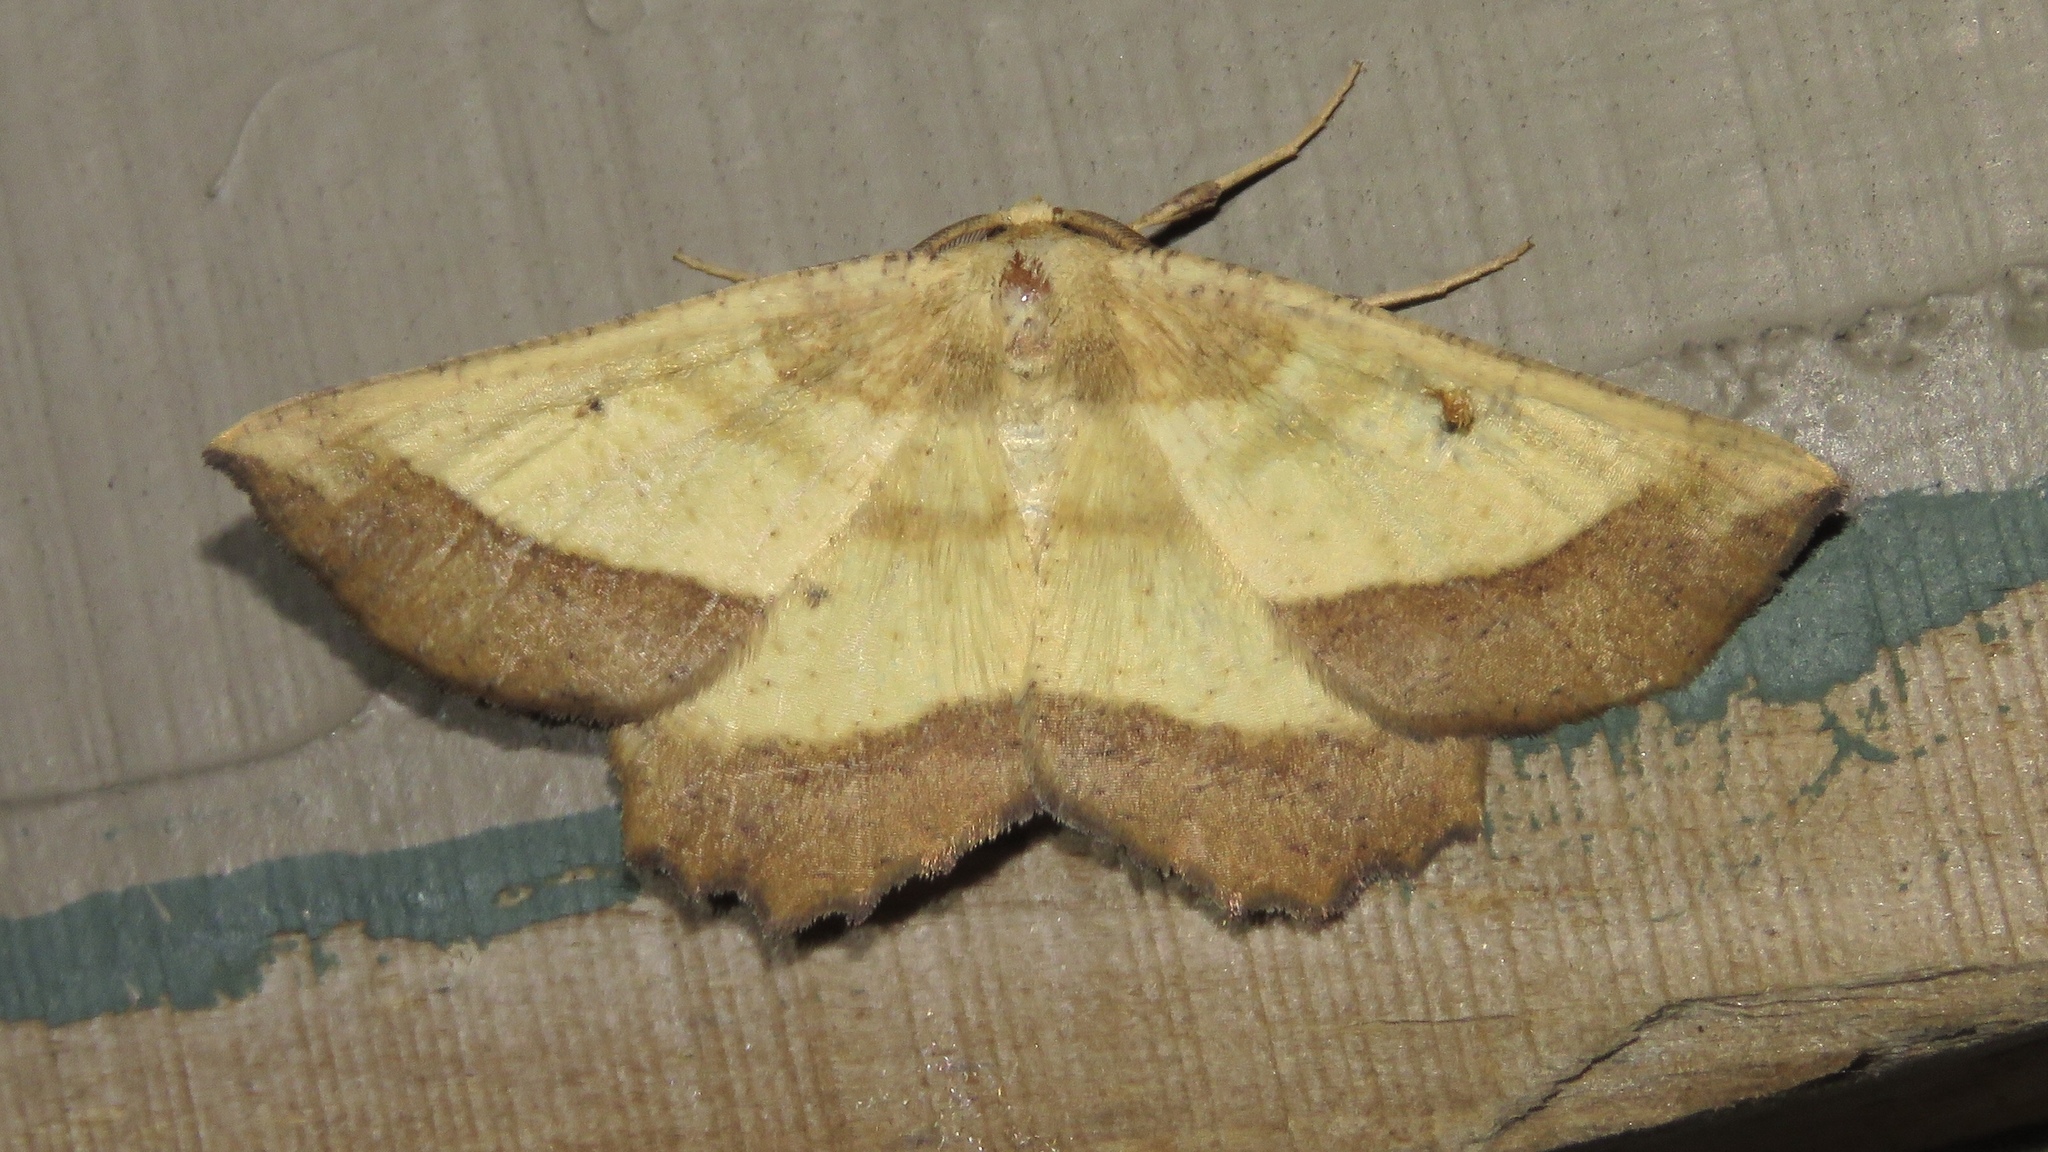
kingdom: Animalia
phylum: Arthropoda
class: Insecta
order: Lepidoptera
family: Geometridae
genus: Euchlaena
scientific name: Euchlaena serrata
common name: Saw wing
